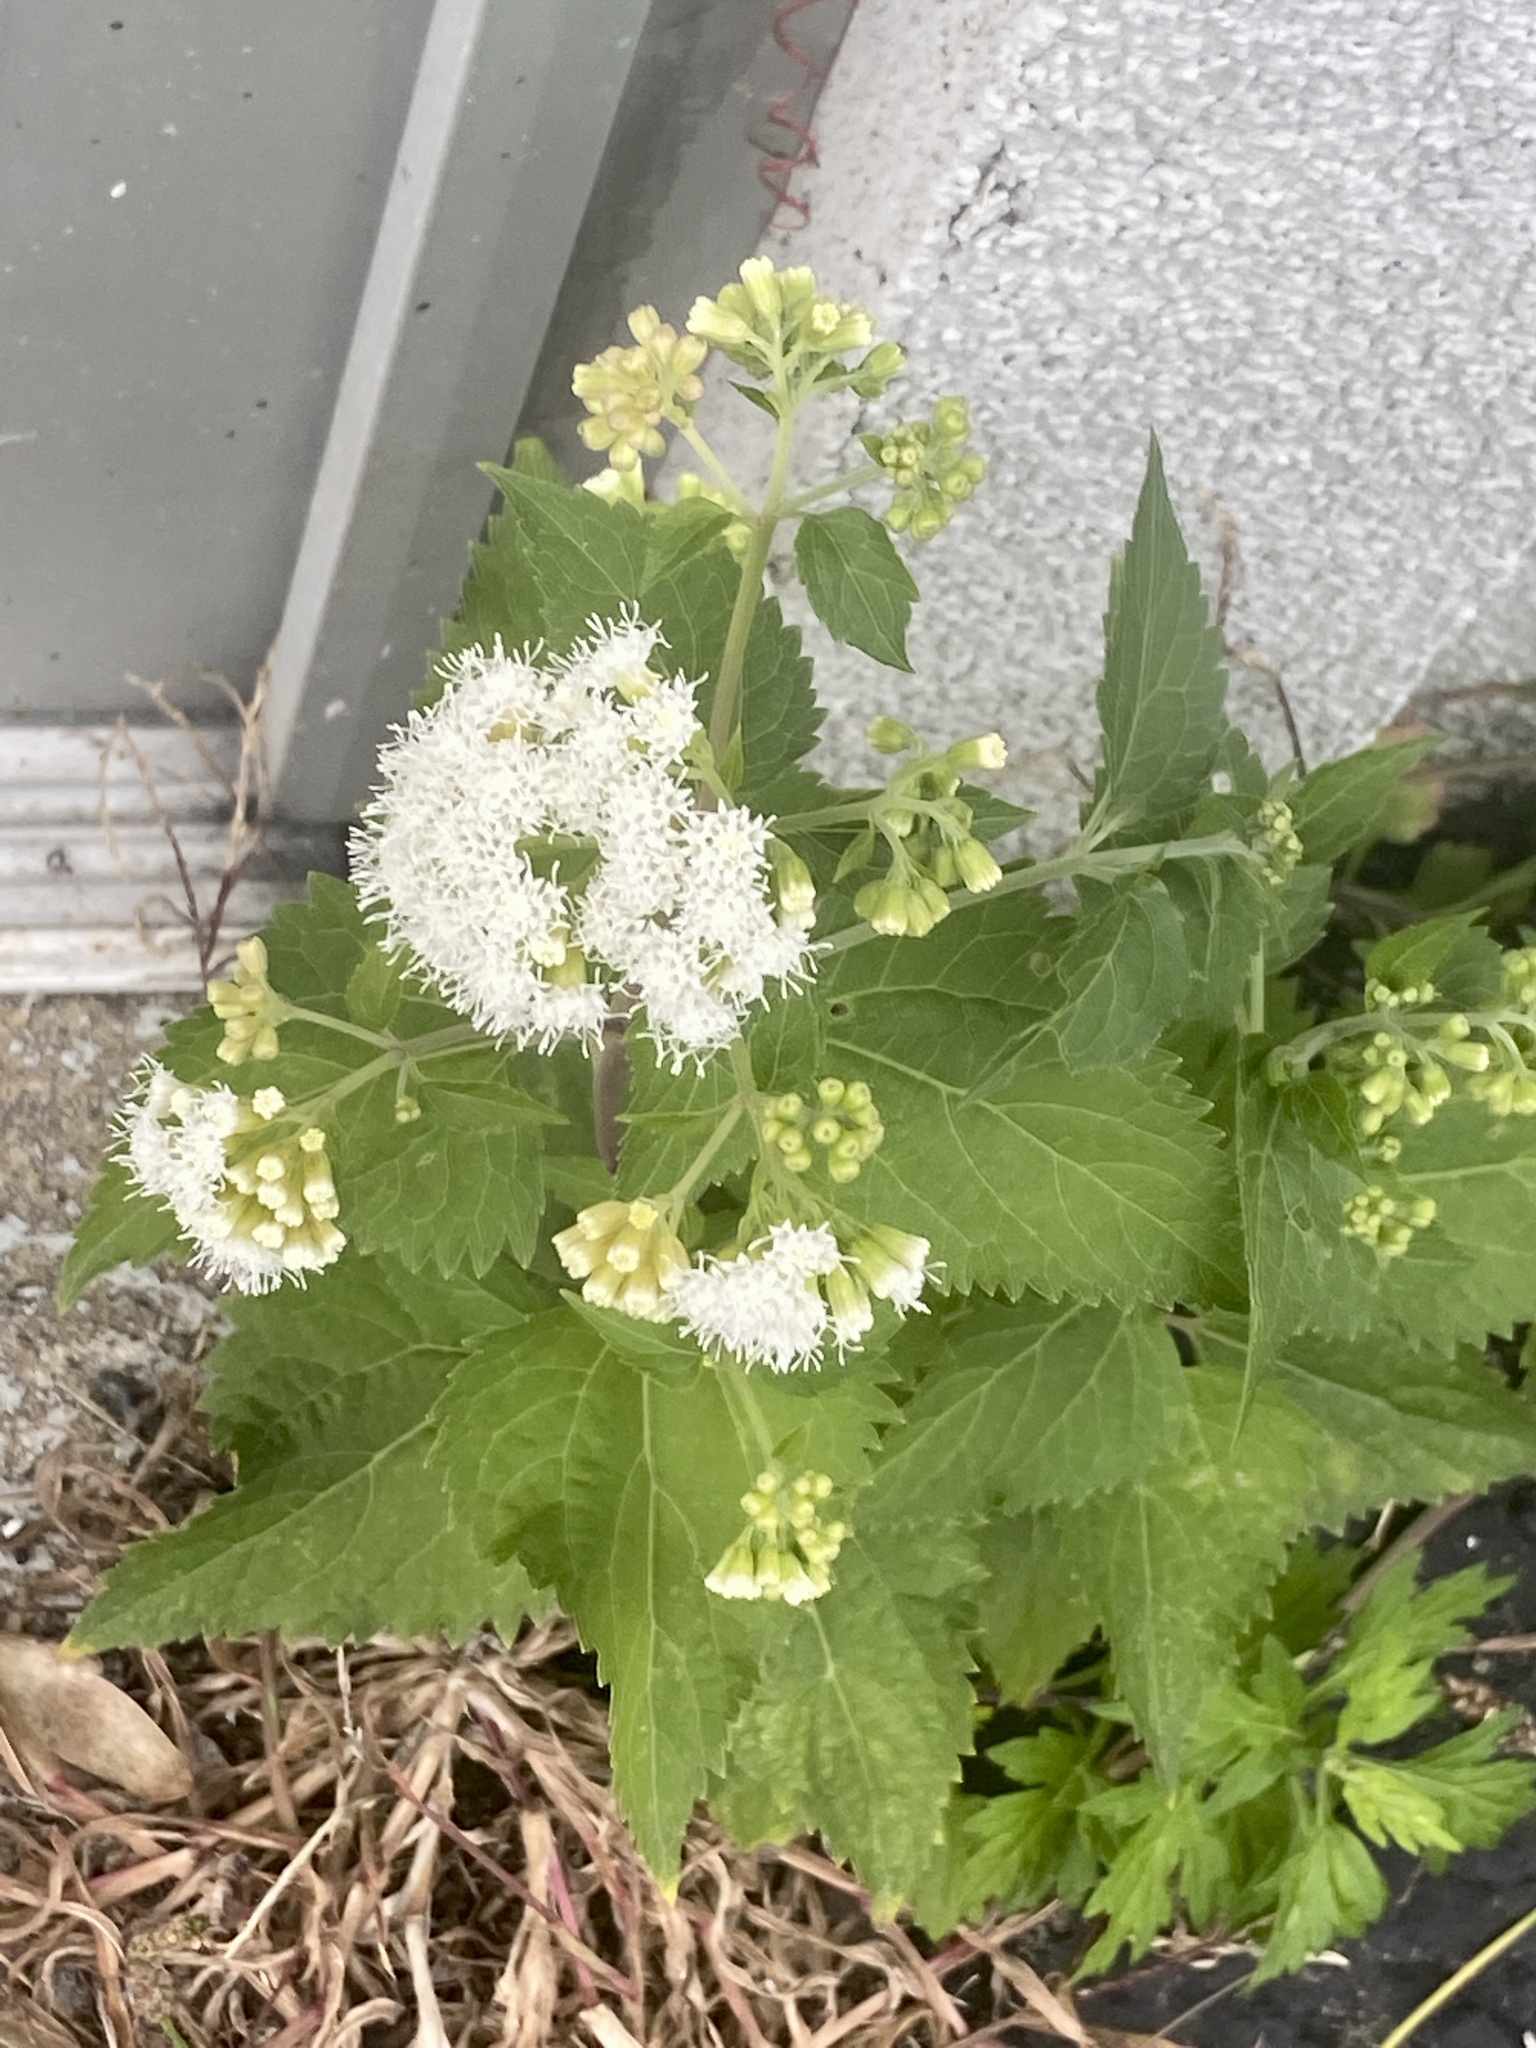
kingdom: Plantae
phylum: Tracheophyta
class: Magnoliopsida
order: Asterales
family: Asteraceae
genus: Ageratina
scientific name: Ageratina altissima
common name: White snakeroot
